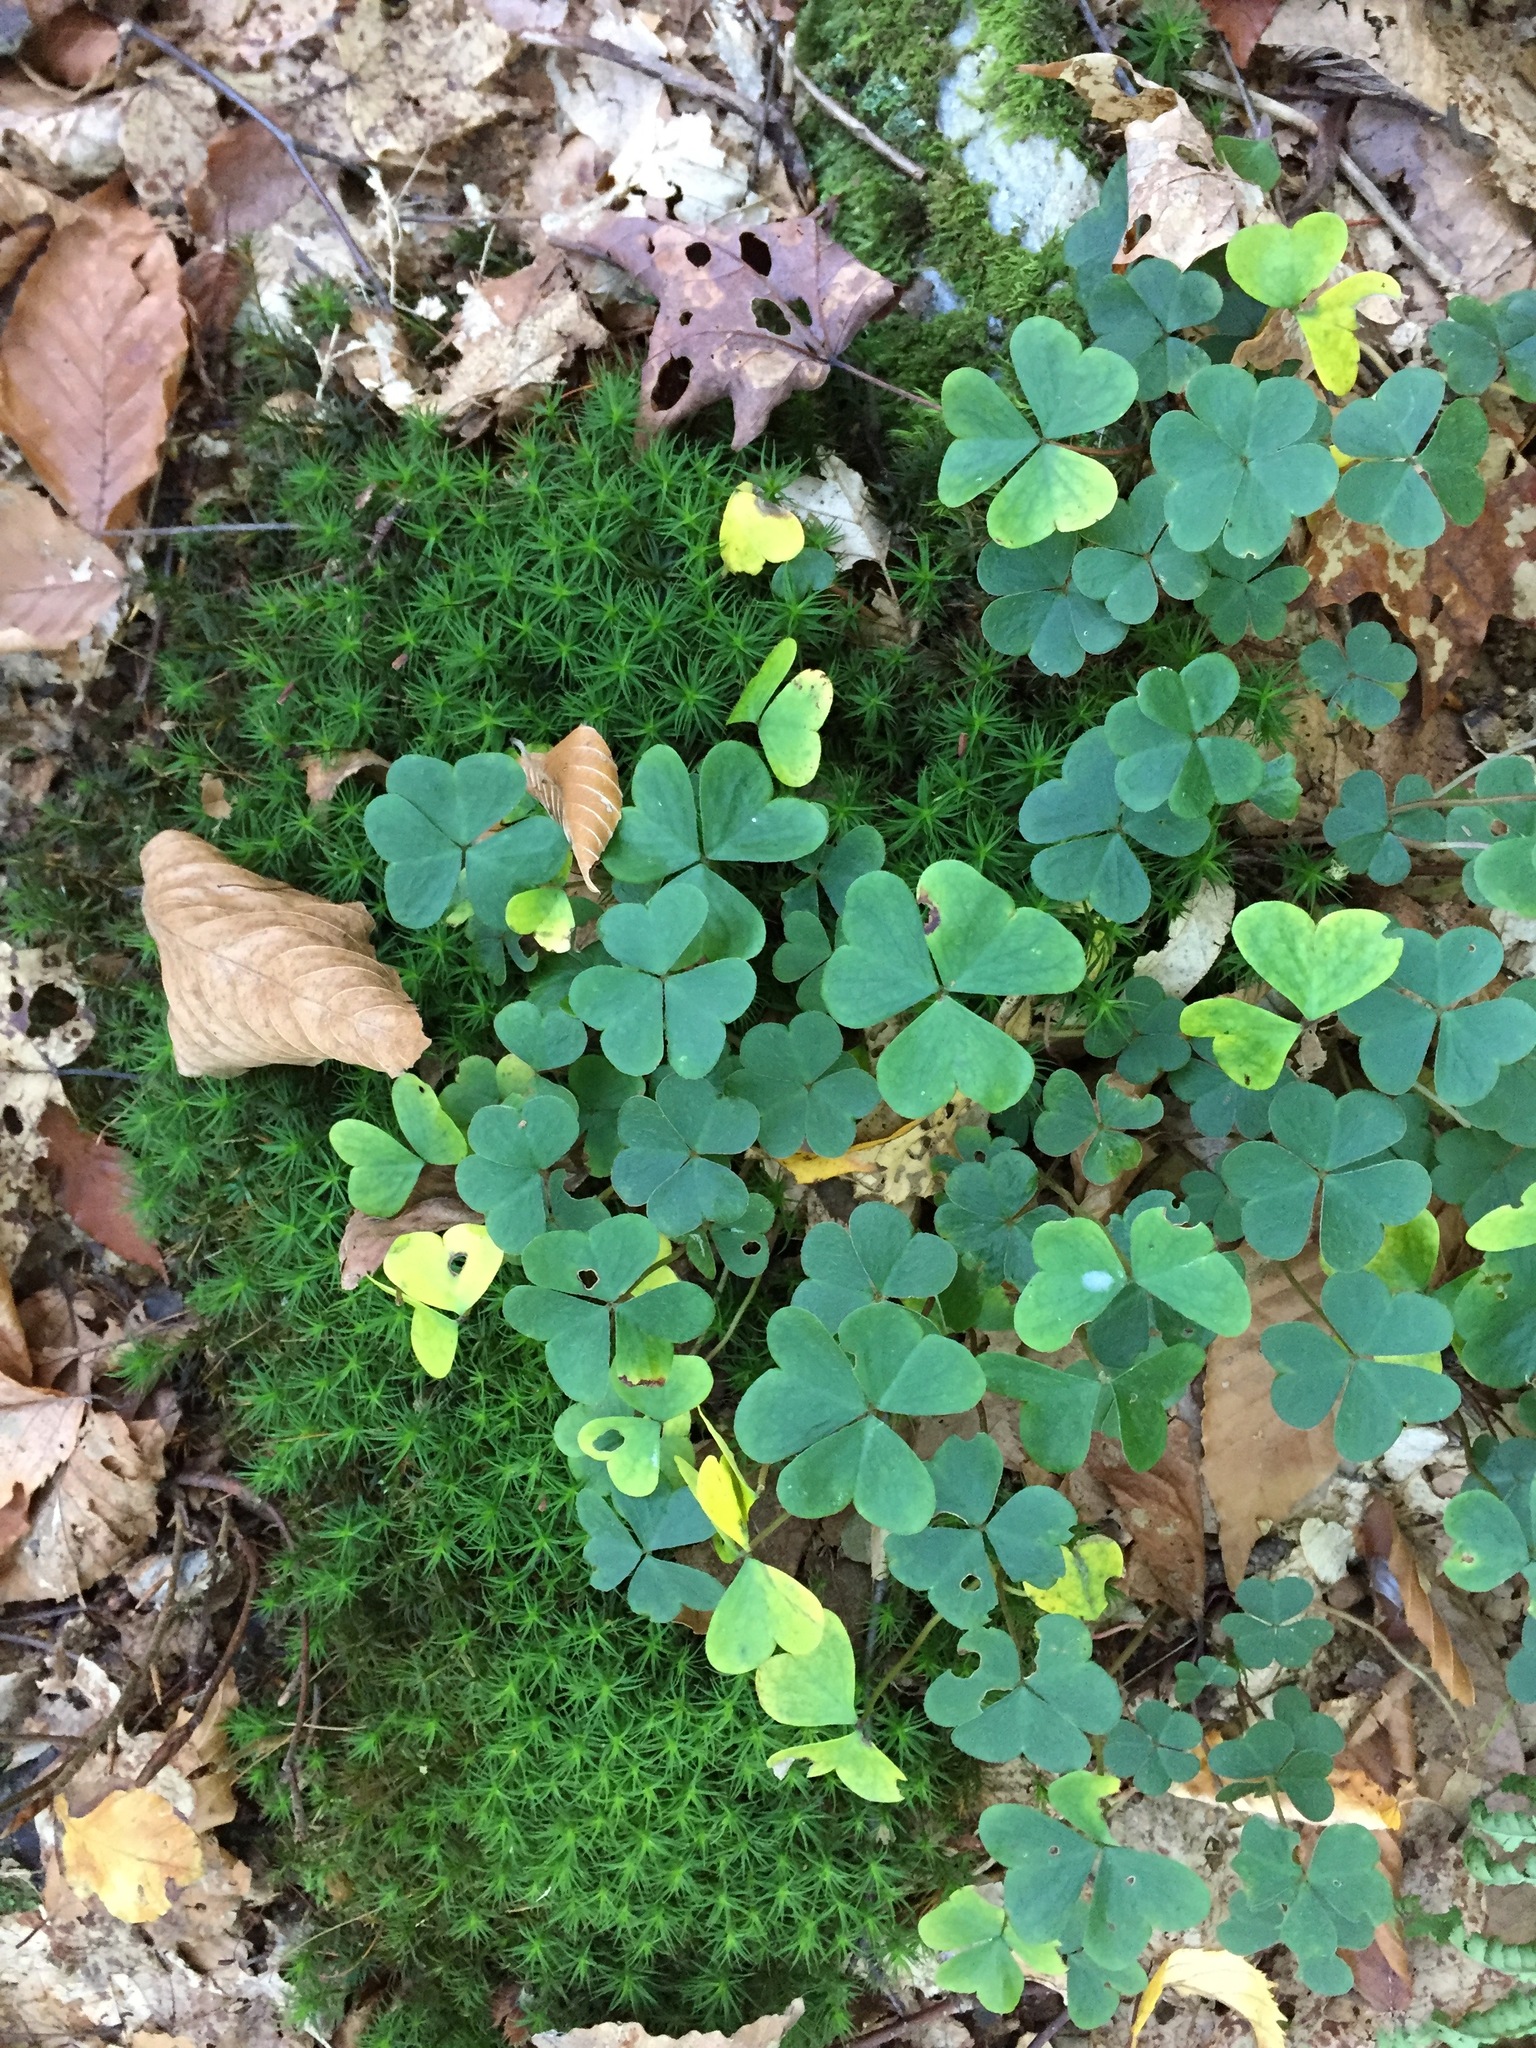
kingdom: Plantae
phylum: Tracheophyta
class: Magnoliopsida
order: Oxalidales
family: Oxalidaceae
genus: Oxalis
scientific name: Oxalis montana
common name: American wood-sorrel
